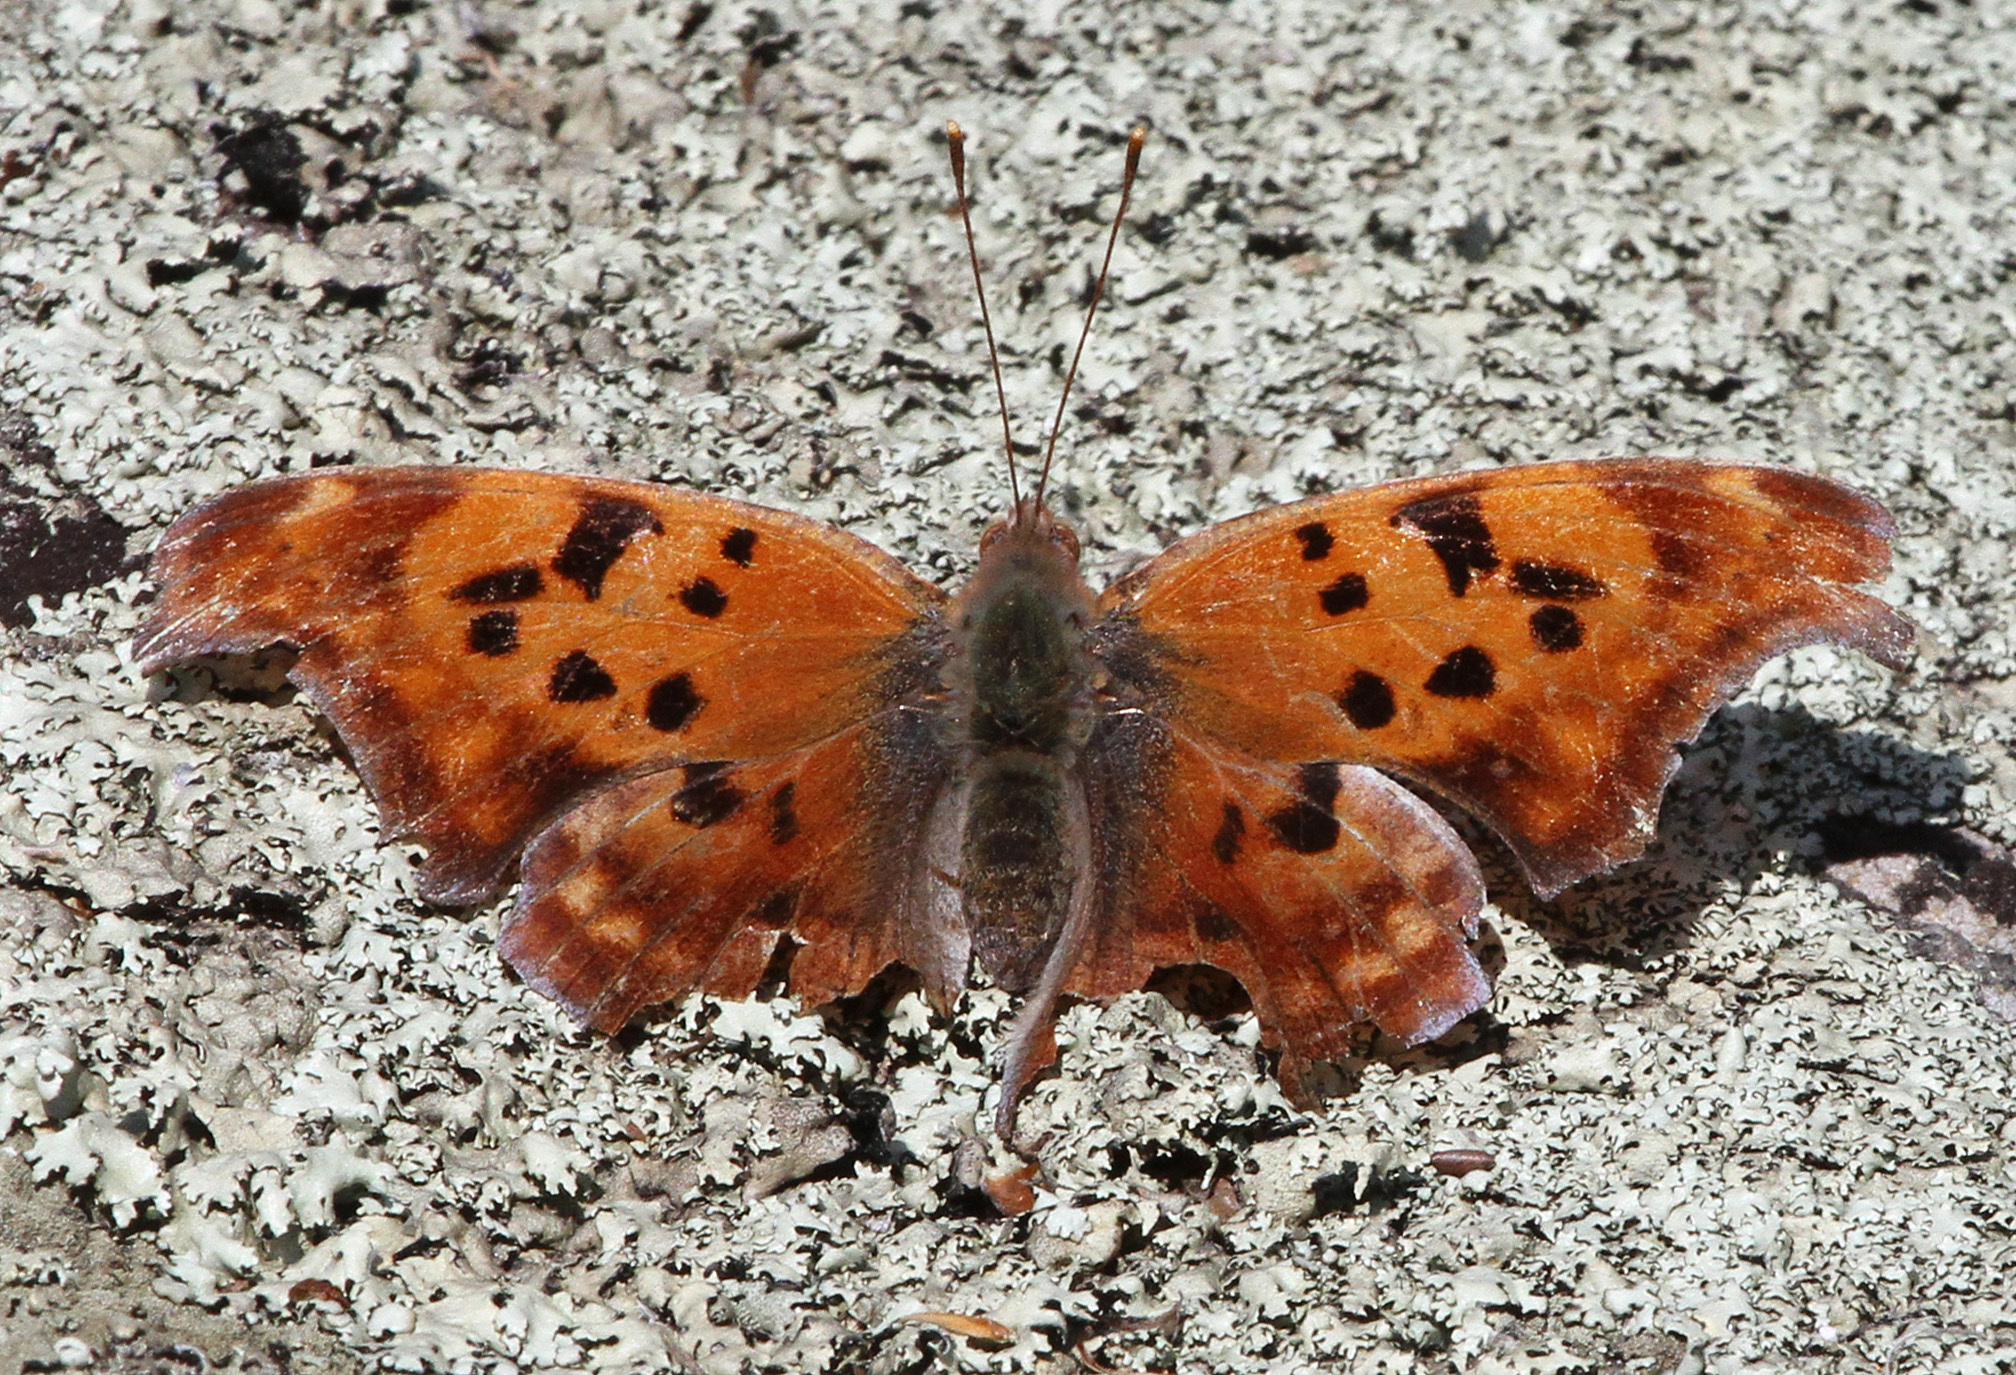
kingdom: Animalia
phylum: Arthropoda
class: Insecta
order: Lepidoptera
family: Nymphalidae
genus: Polygonia
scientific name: Polygonia interrogationis
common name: Question mark
